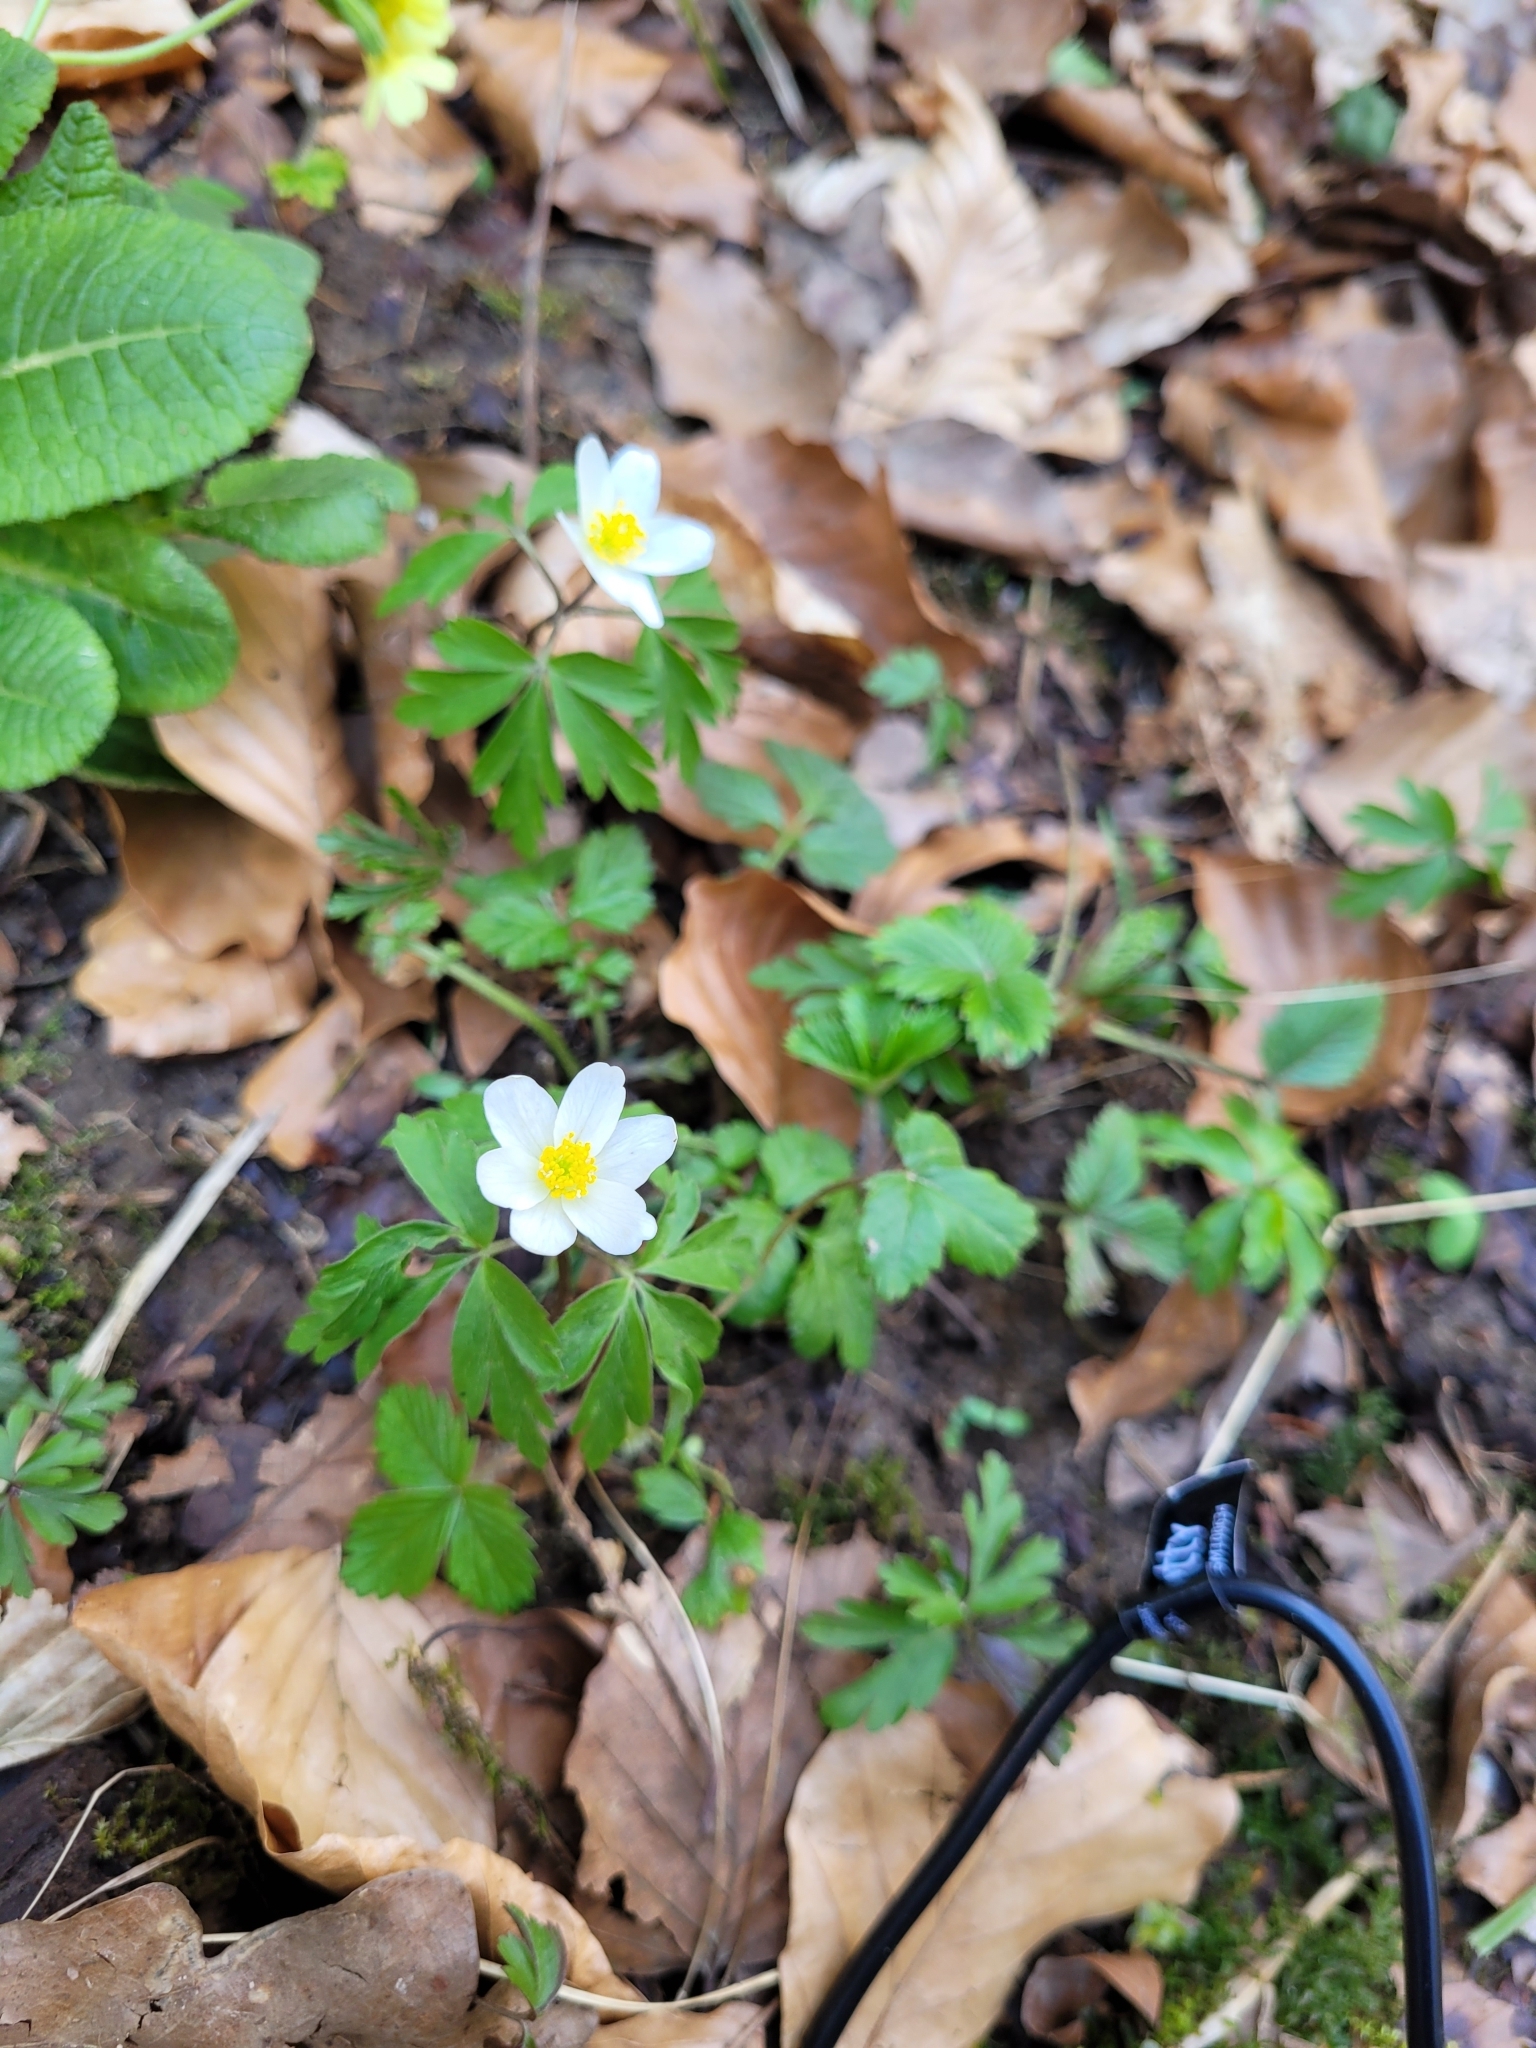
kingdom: Plantae
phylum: Tracheophyta
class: Magnoliopsida
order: Ranunculales
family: Ranunculaceae
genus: Anemone
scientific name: Anemone nemorosa
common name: Wood anemone
